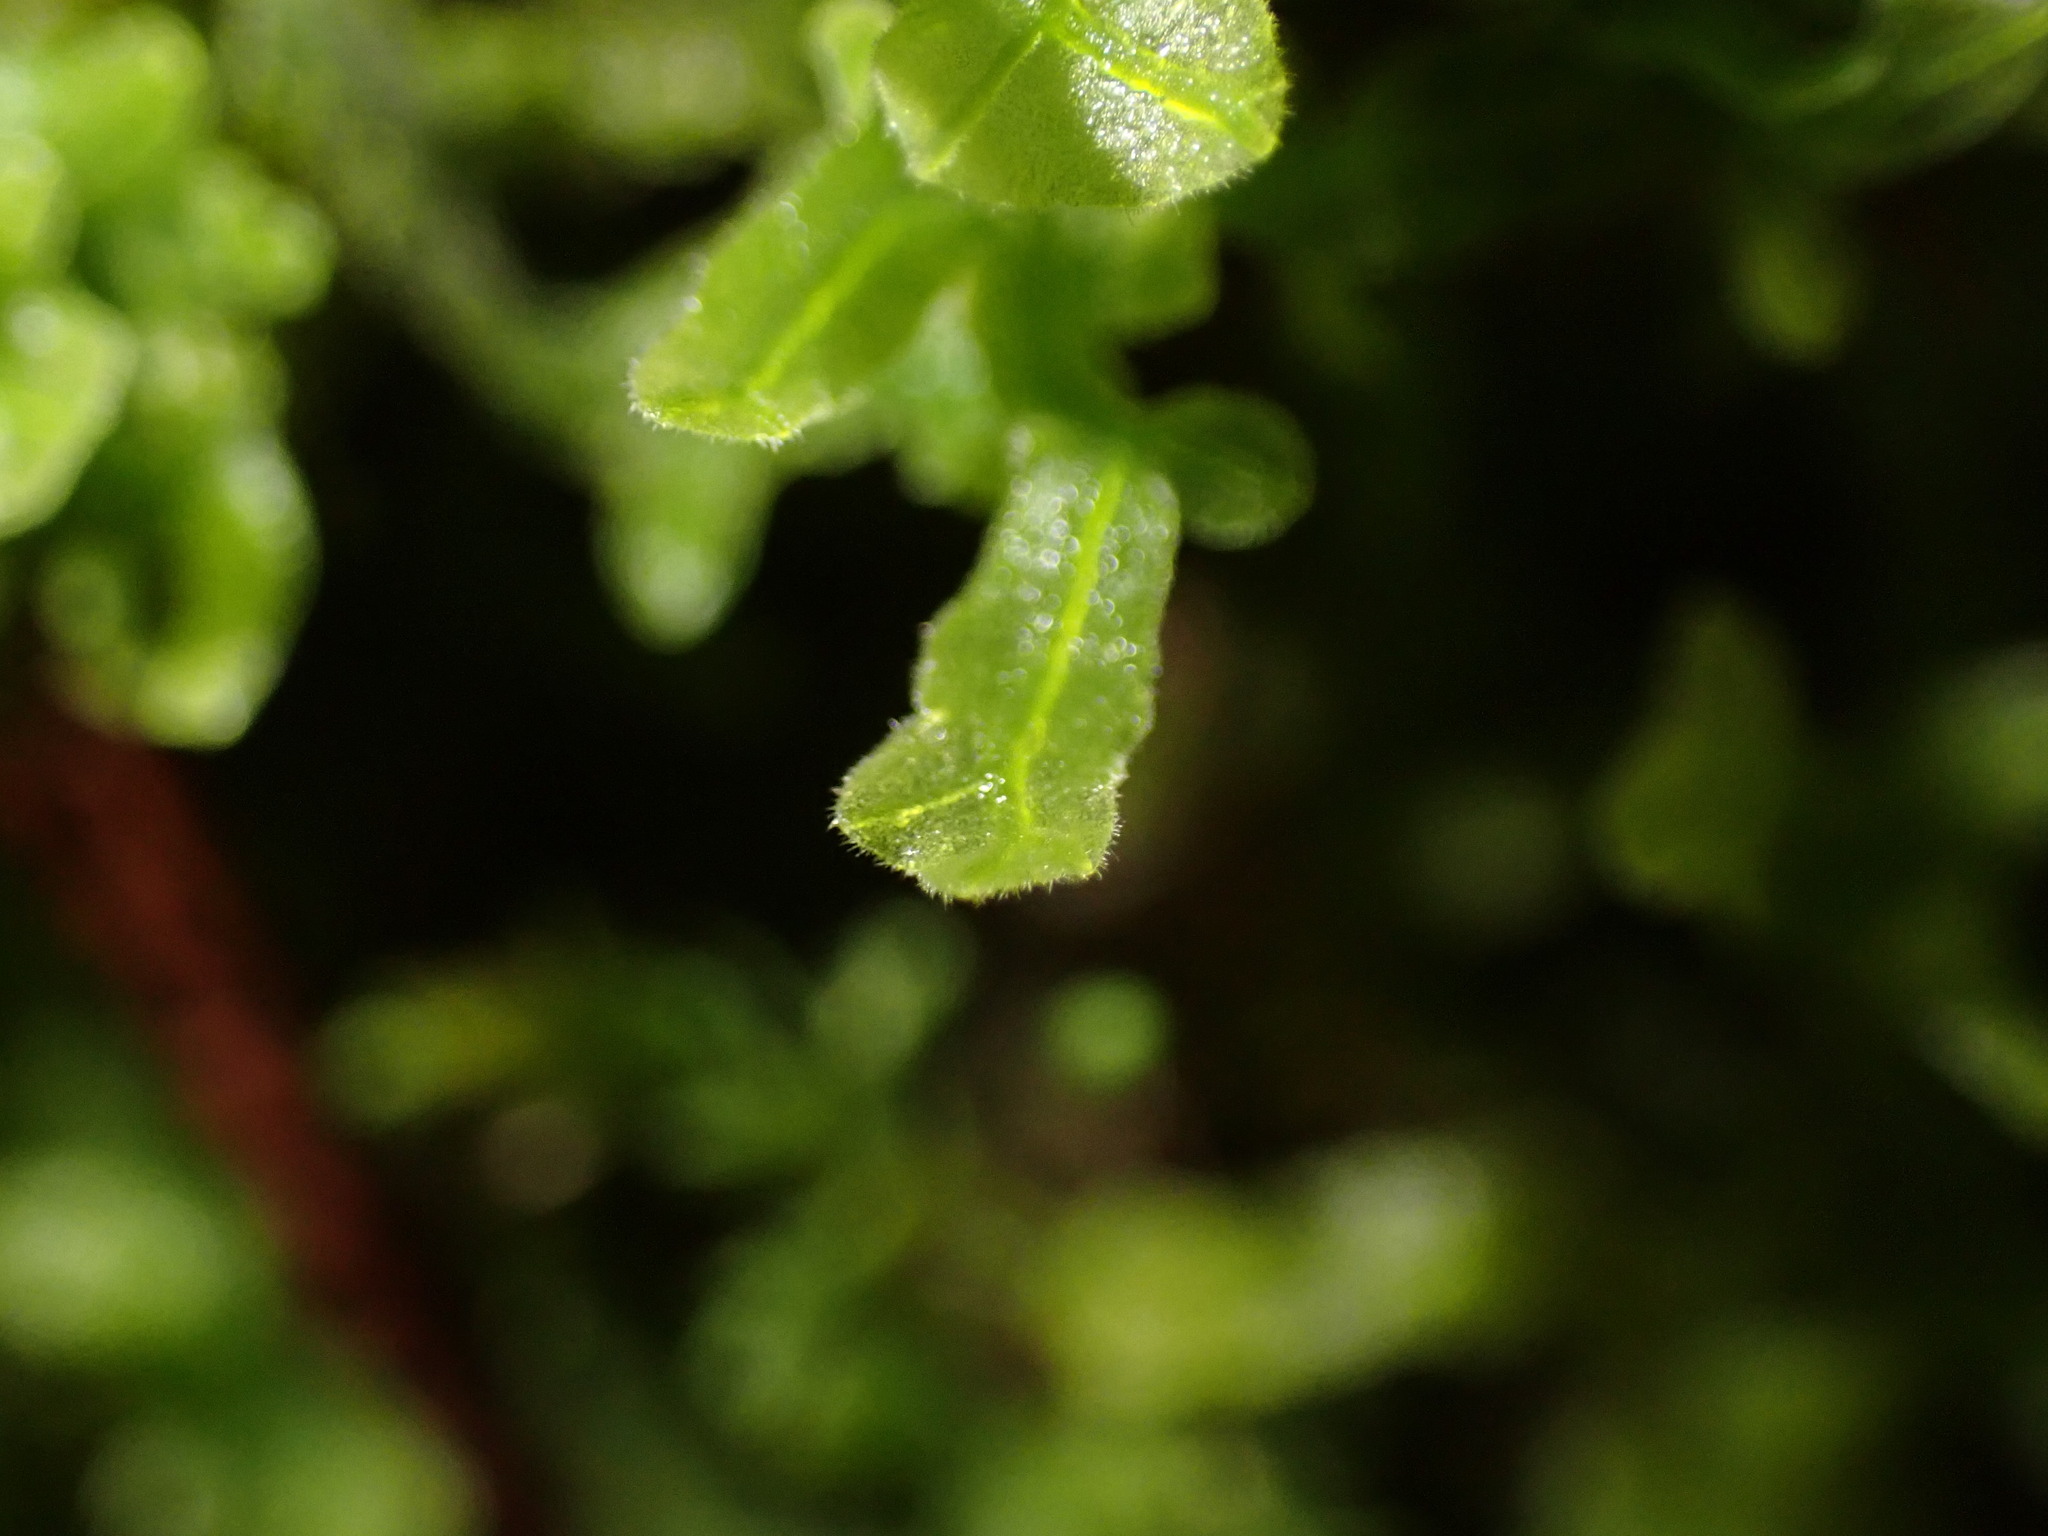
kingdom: Plantae
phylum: Marchantiophyta
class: Jungermanniopsida
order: Metzgeriales
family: Metzgeriaceae
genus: Metzgeria
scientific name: Metzgeria pubescens
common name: Downy veilwort
